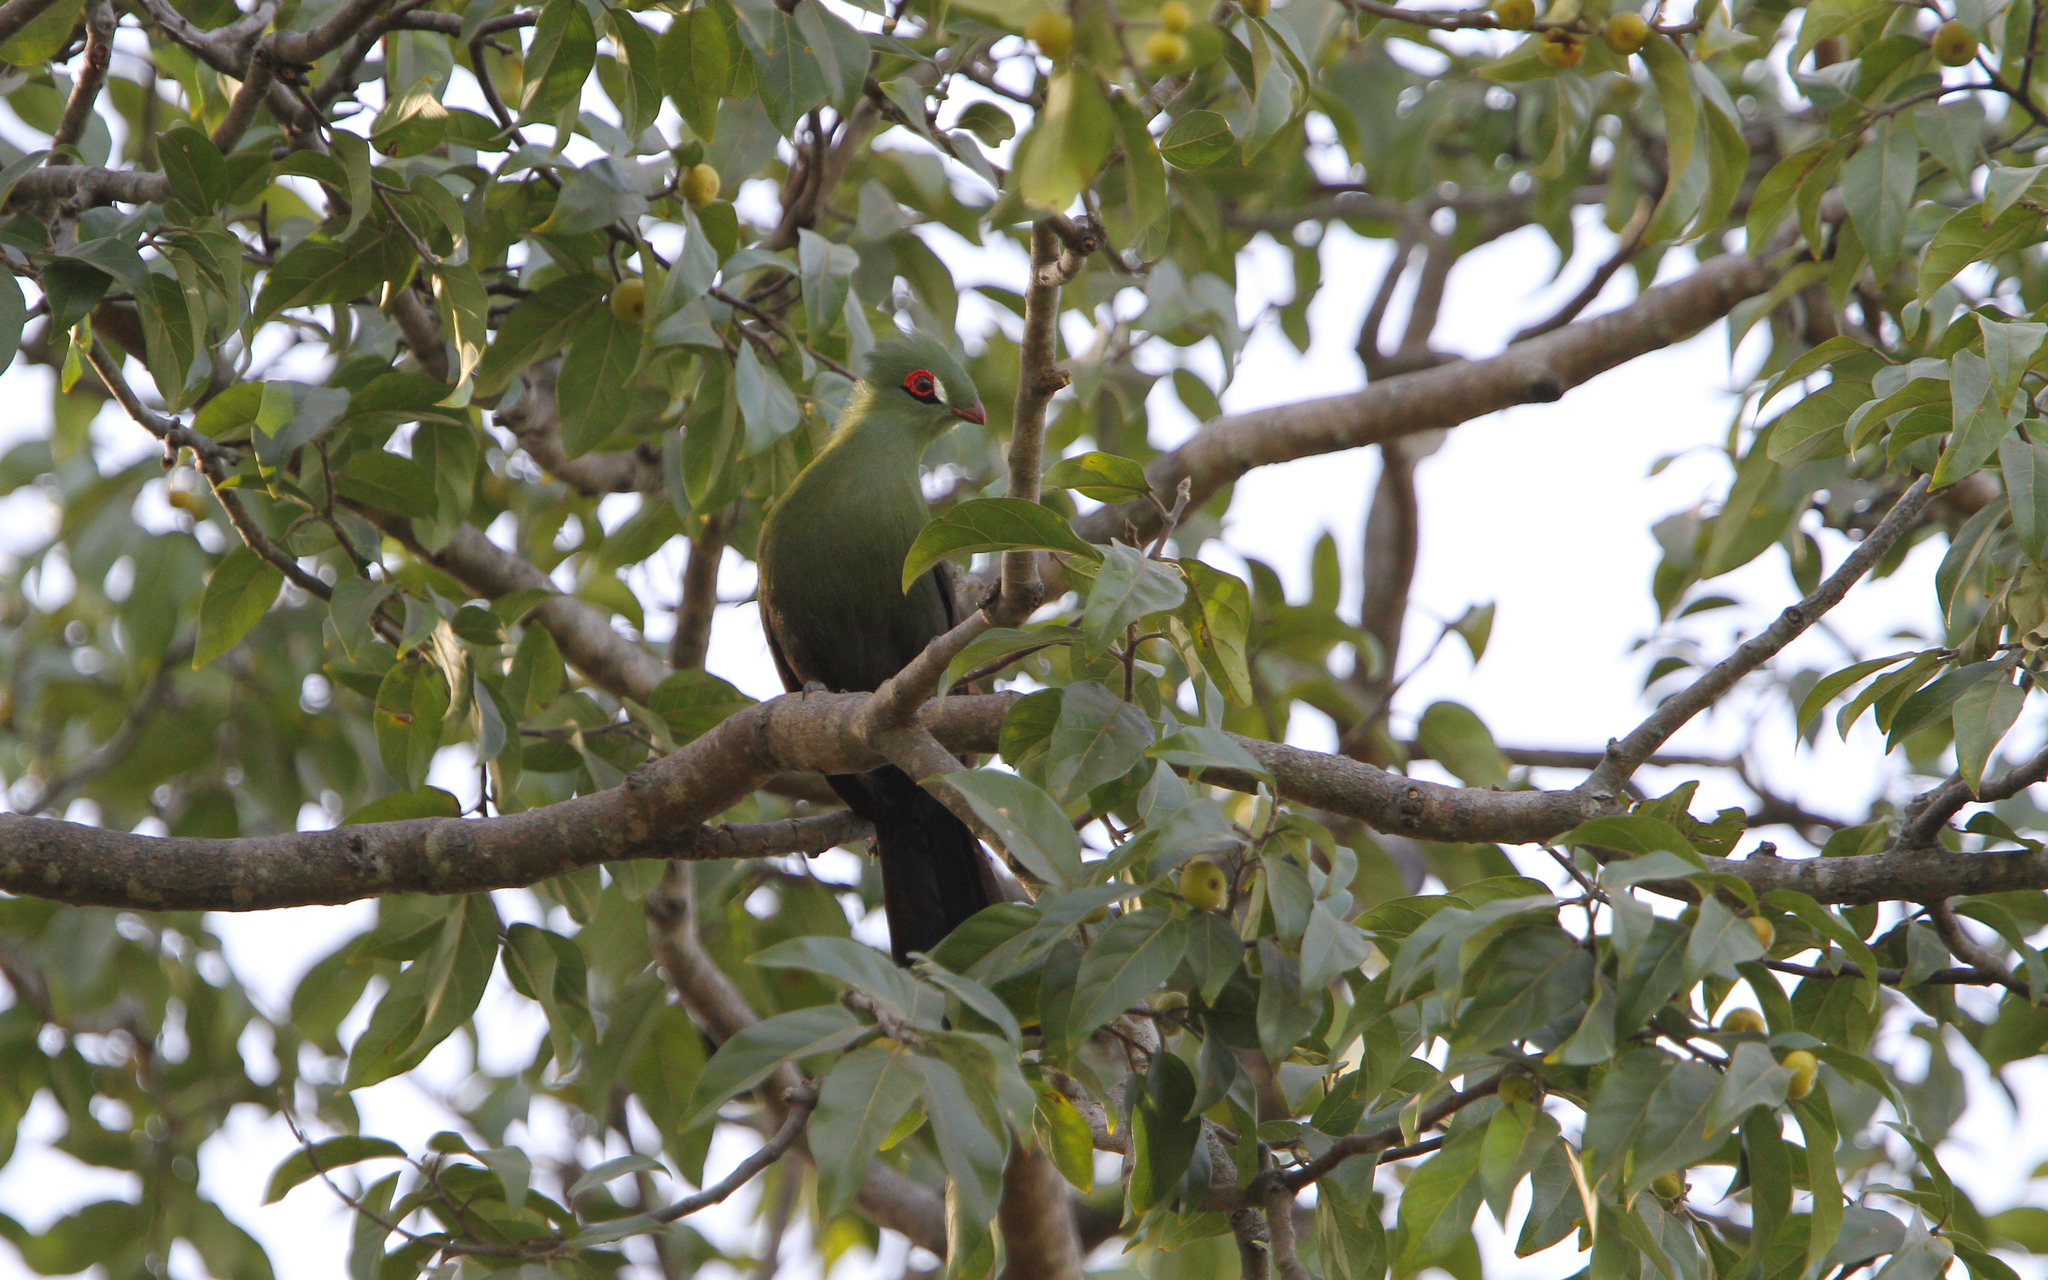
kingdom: Animalia
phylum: Chordata
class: Aves
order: Musophagiformes
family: Musophagidae
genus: Tauraco
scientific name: Tauraco persa
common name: Guinea turaco
